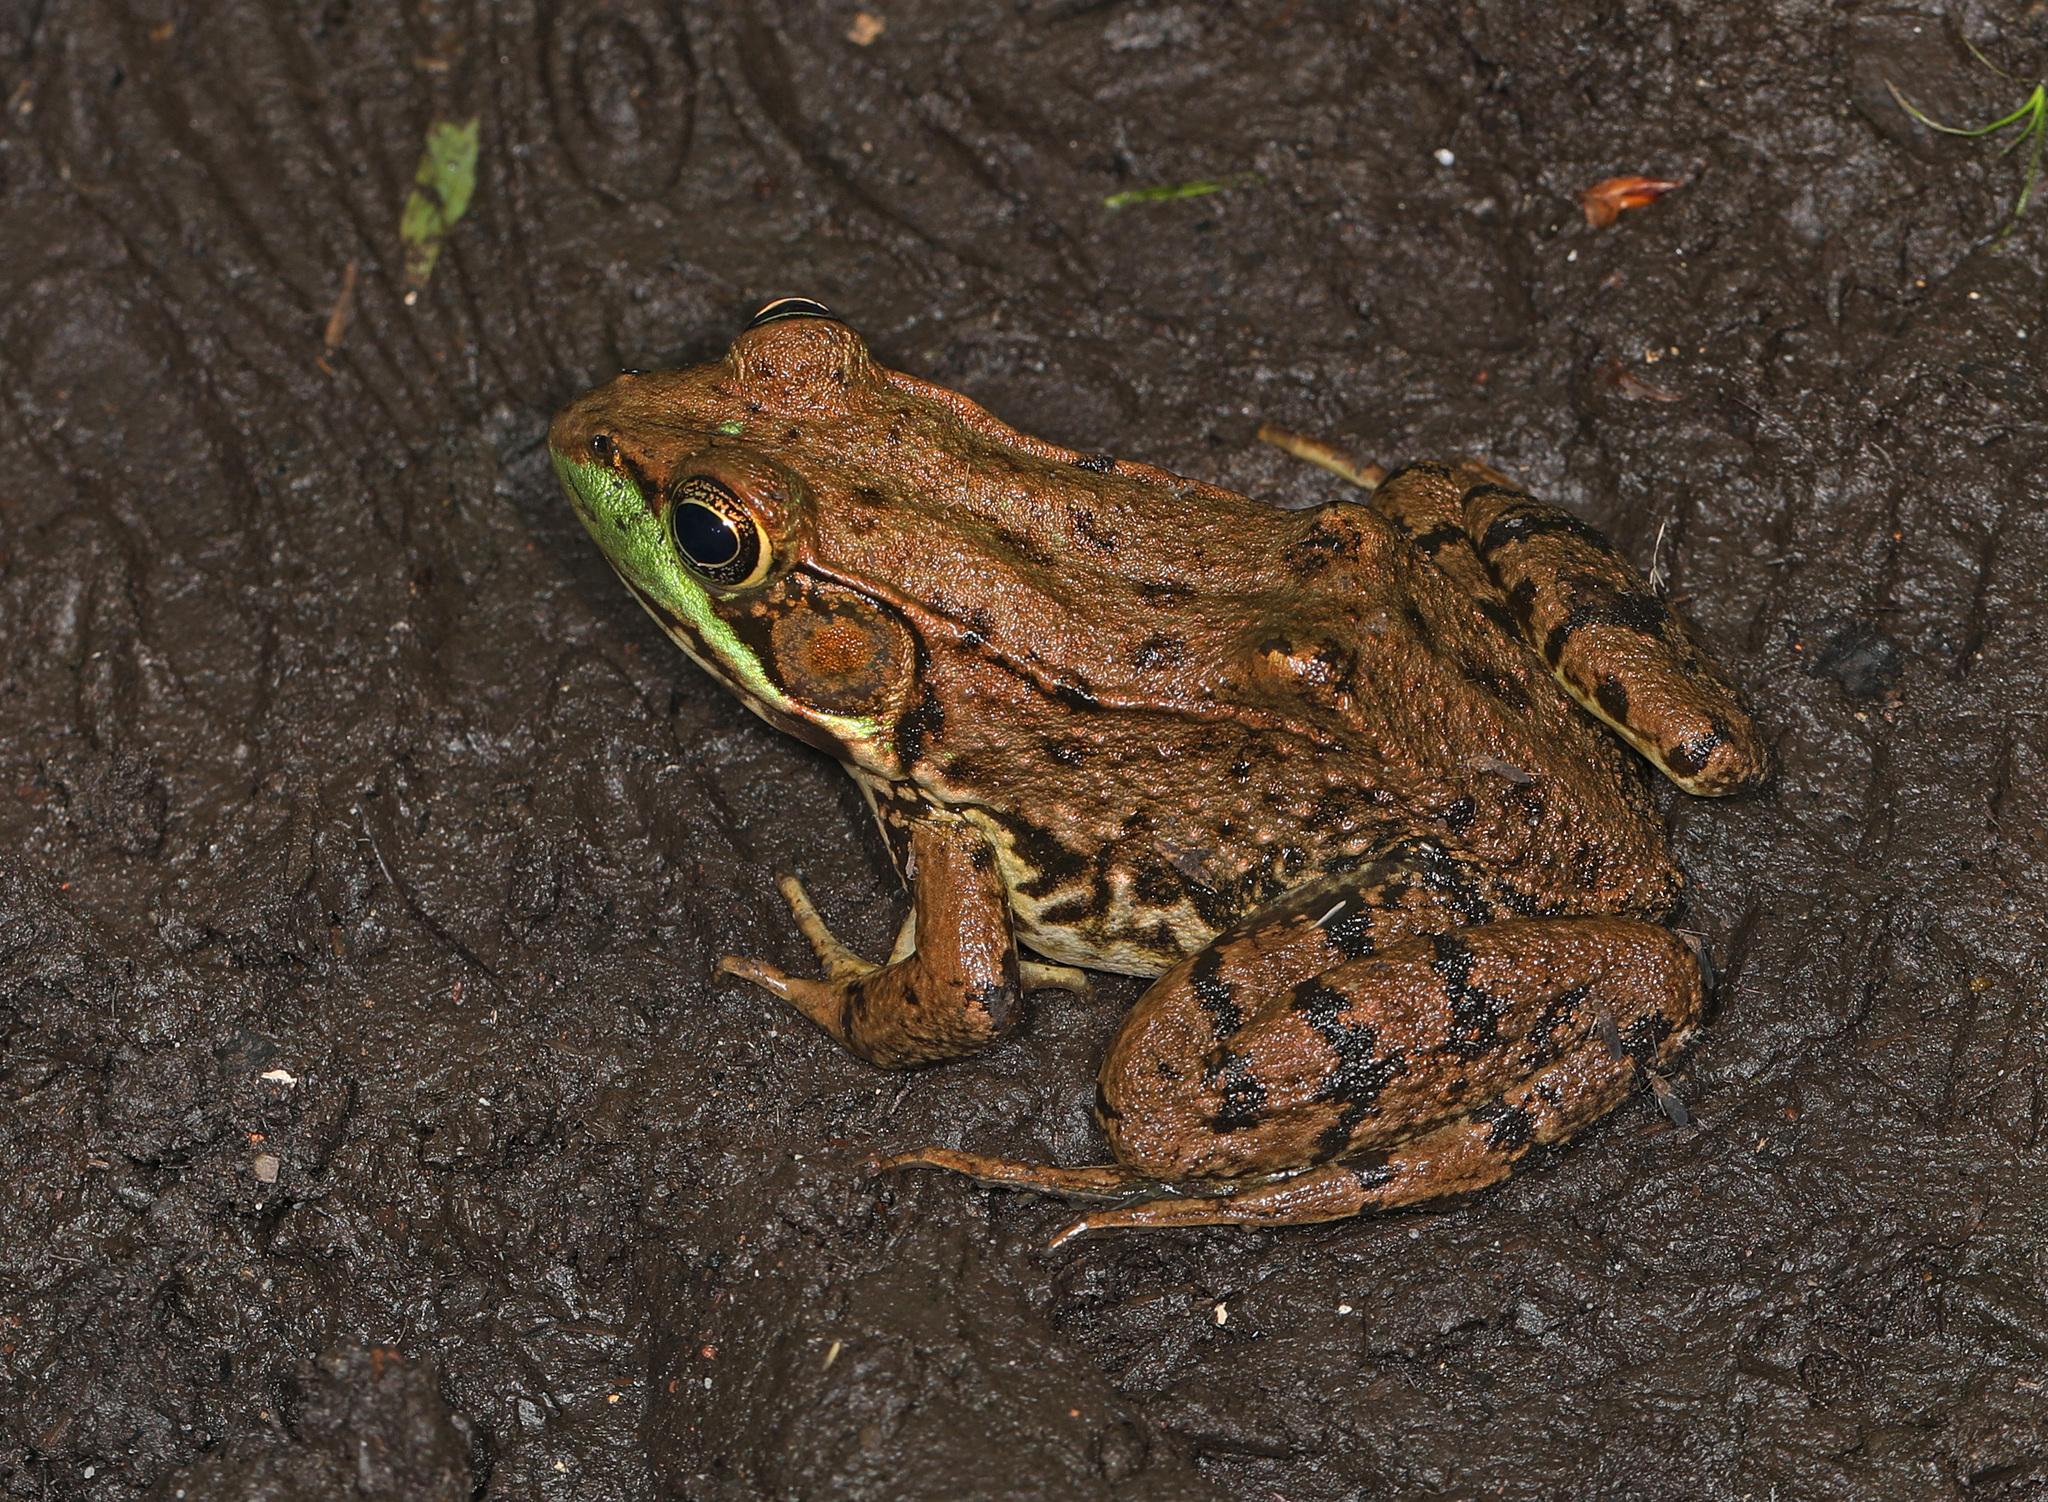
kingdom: Animalia
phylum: Chordata
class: Amphibia
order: Anura
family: Ranidae
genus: Lithobates
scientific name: Lithobates clamitans
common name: Green frog
